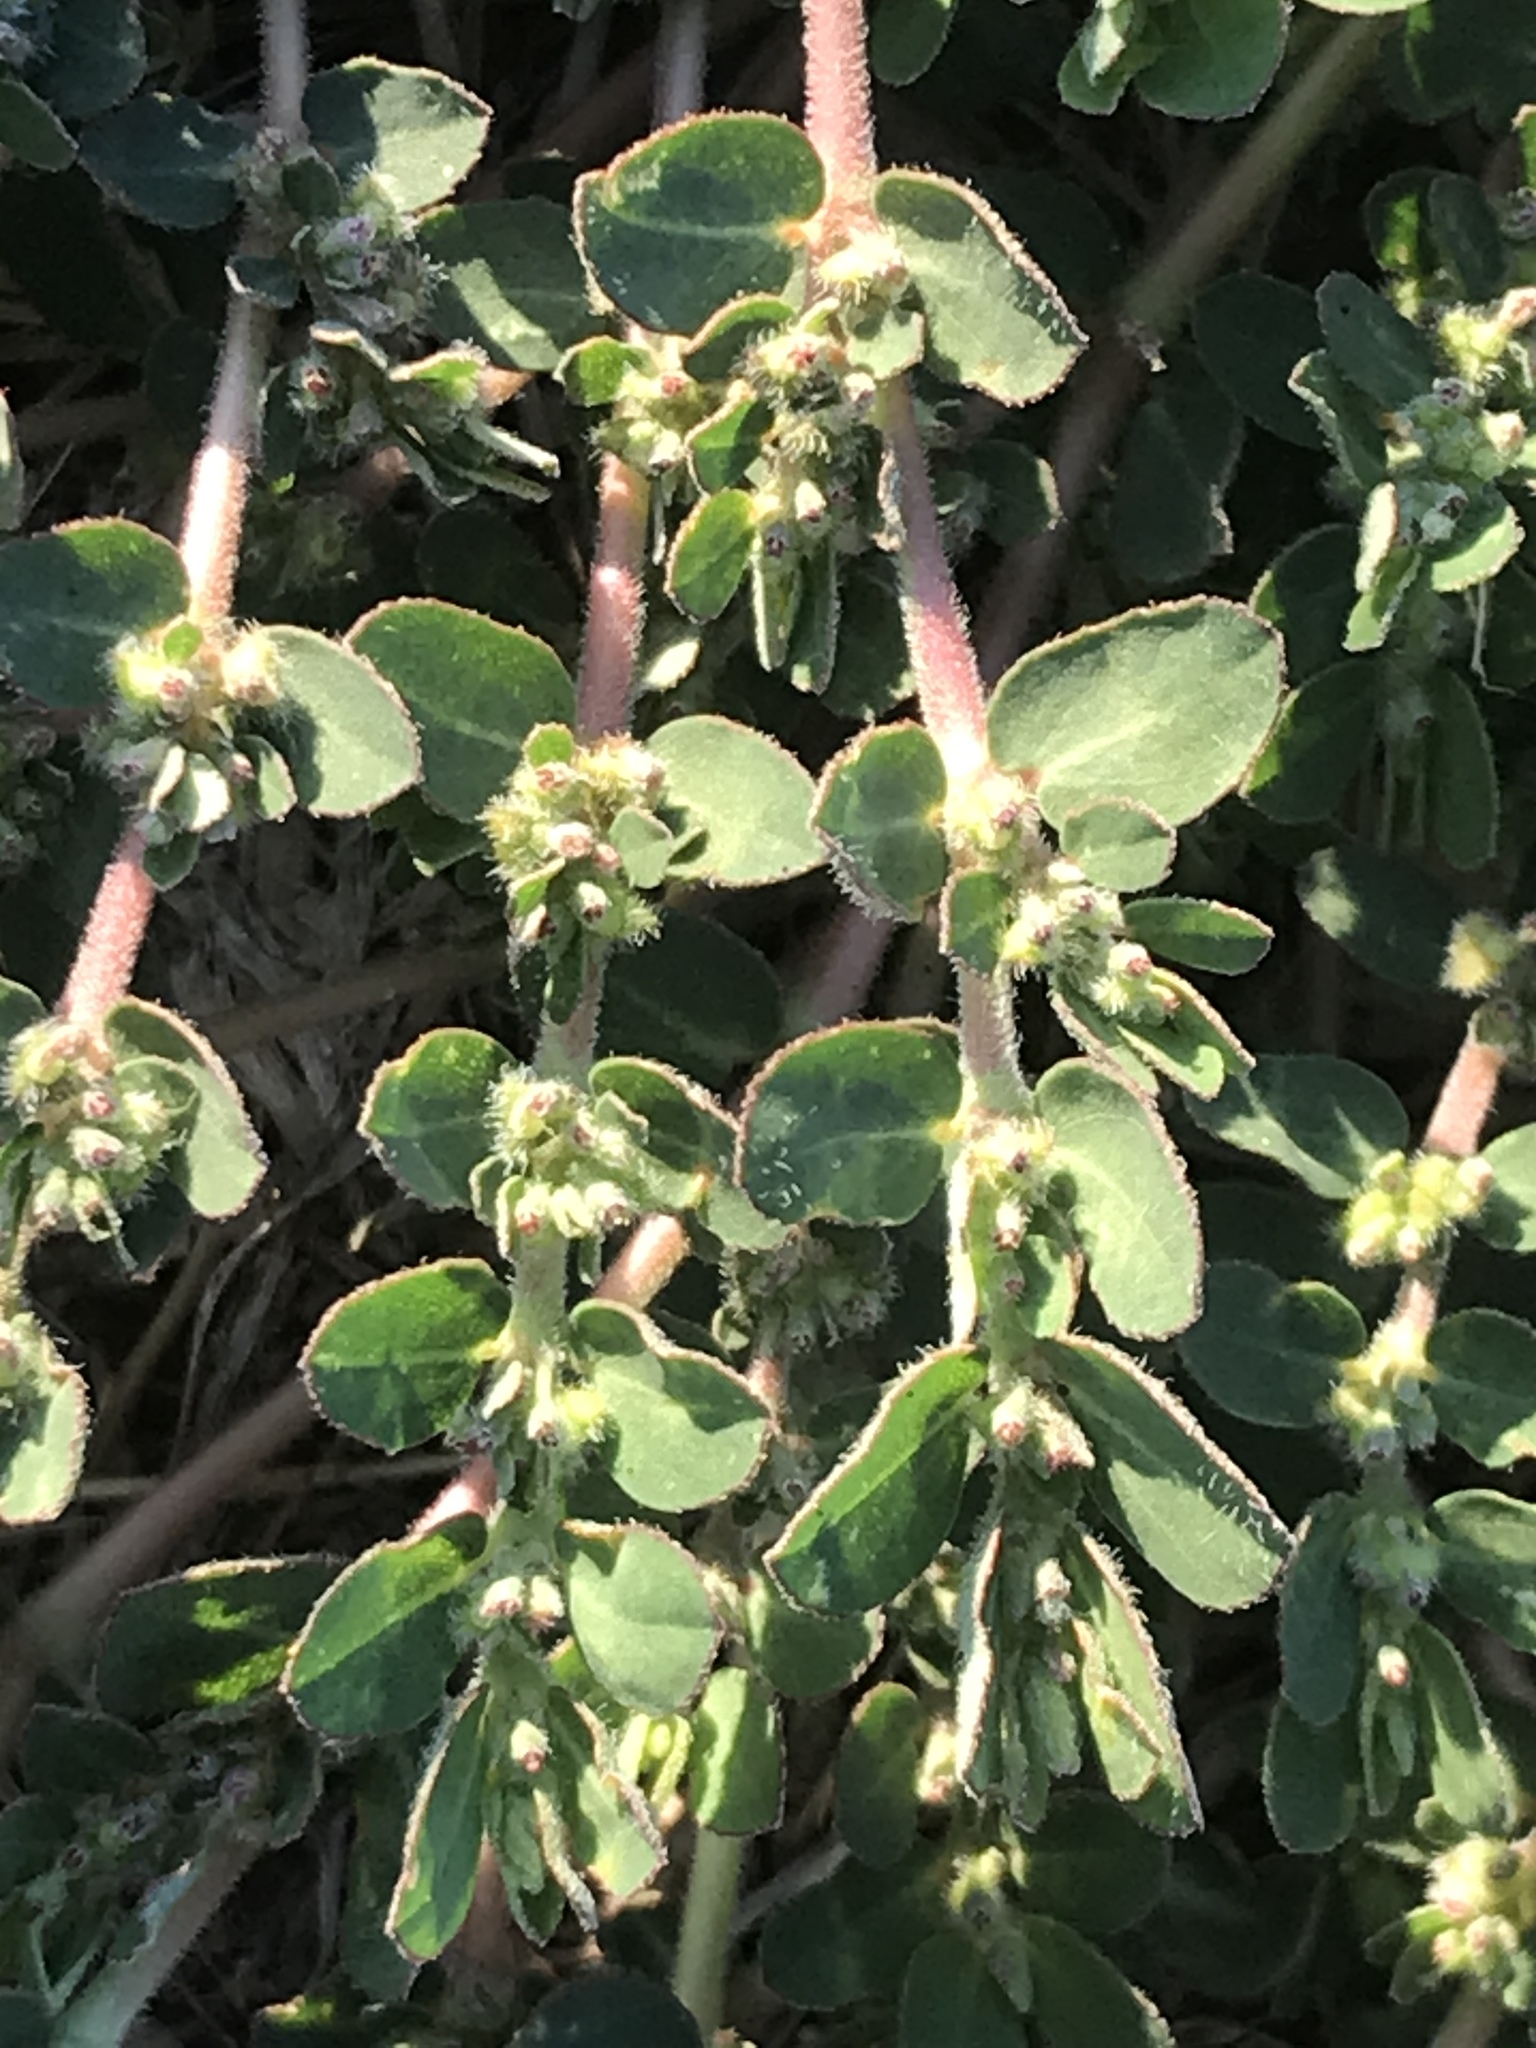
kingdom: Plantae
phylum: Tracheophyta
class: Magnoliopsida
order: Malpighiales
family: Euphorbiaceae
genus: Euphorbia
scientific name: Euphorbia prostrata
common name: Prostrate sandmat
